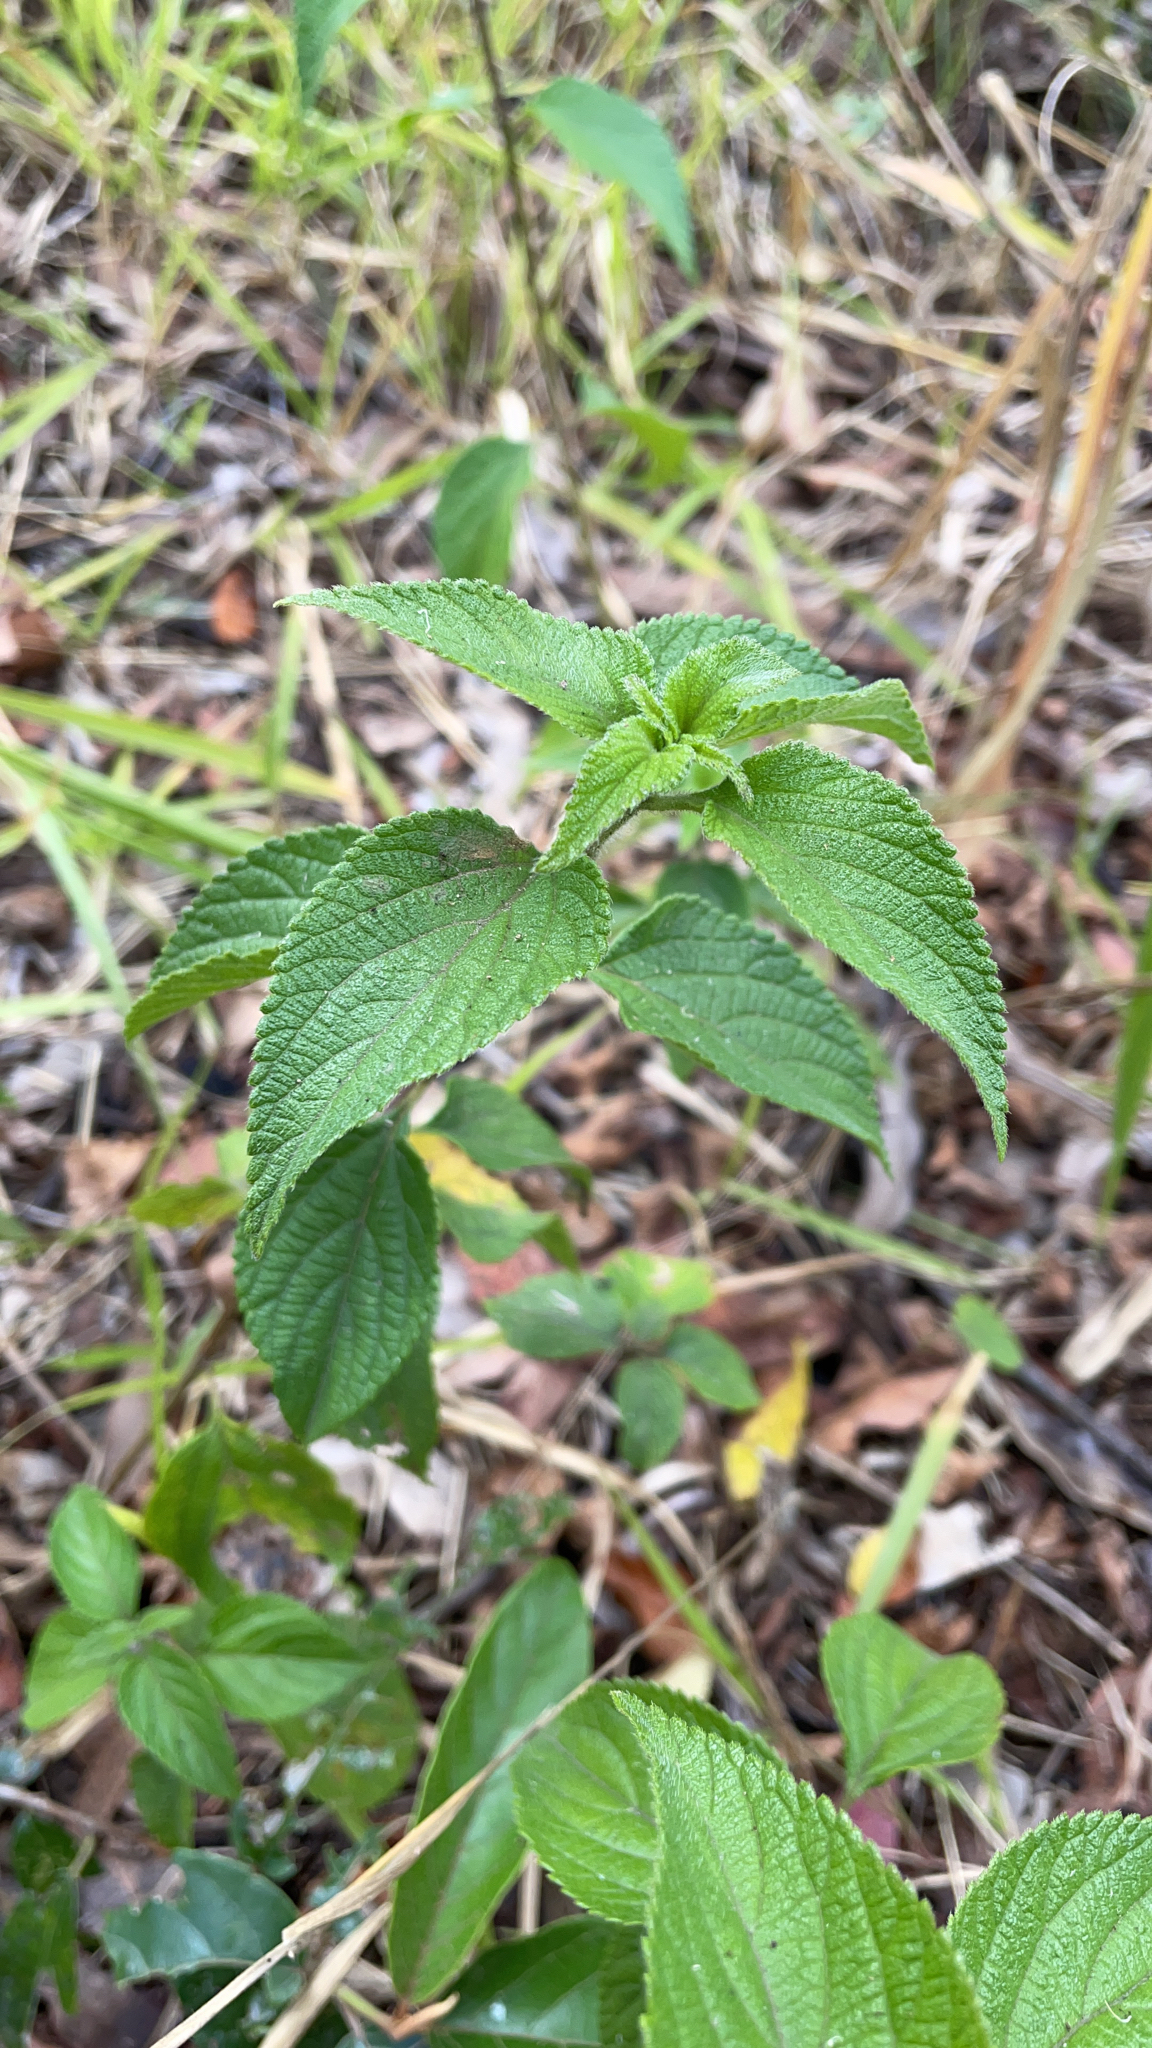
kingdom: Plantae
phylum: Tracheophyta
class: Magnoliopsida
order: Lamiales
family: Verbenaceae
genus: Lantana
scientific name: Lantana camara
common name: Lantana
